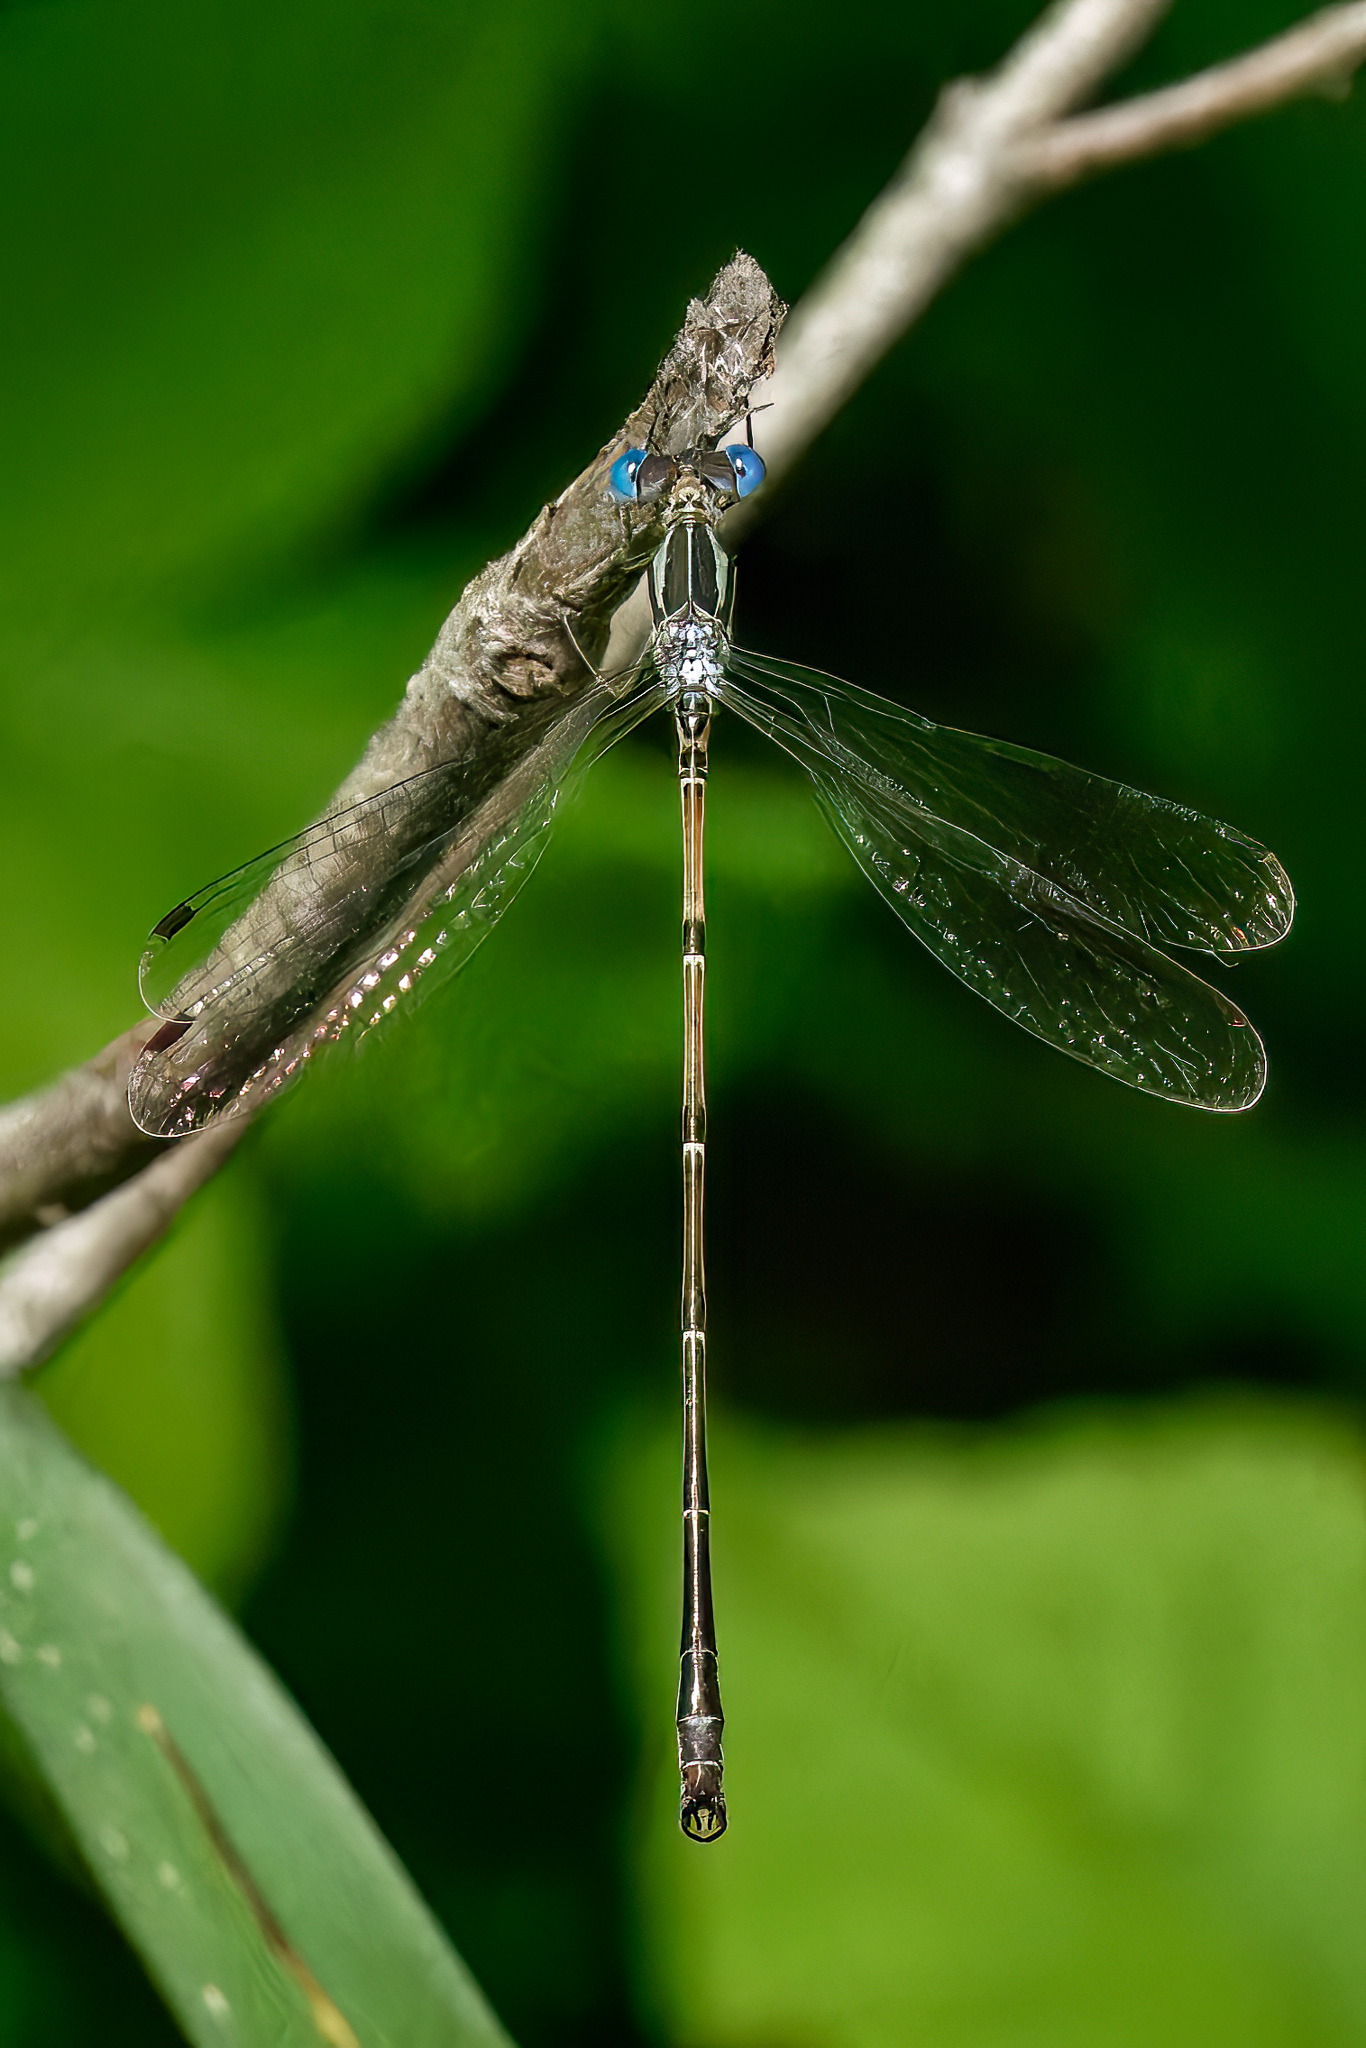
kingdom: Animalia
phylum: Arthropoda
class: Insecta
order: Odonata
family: Lestidae
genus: Lestes
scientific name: Lestes rectangularis
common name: Slender spreadwing
